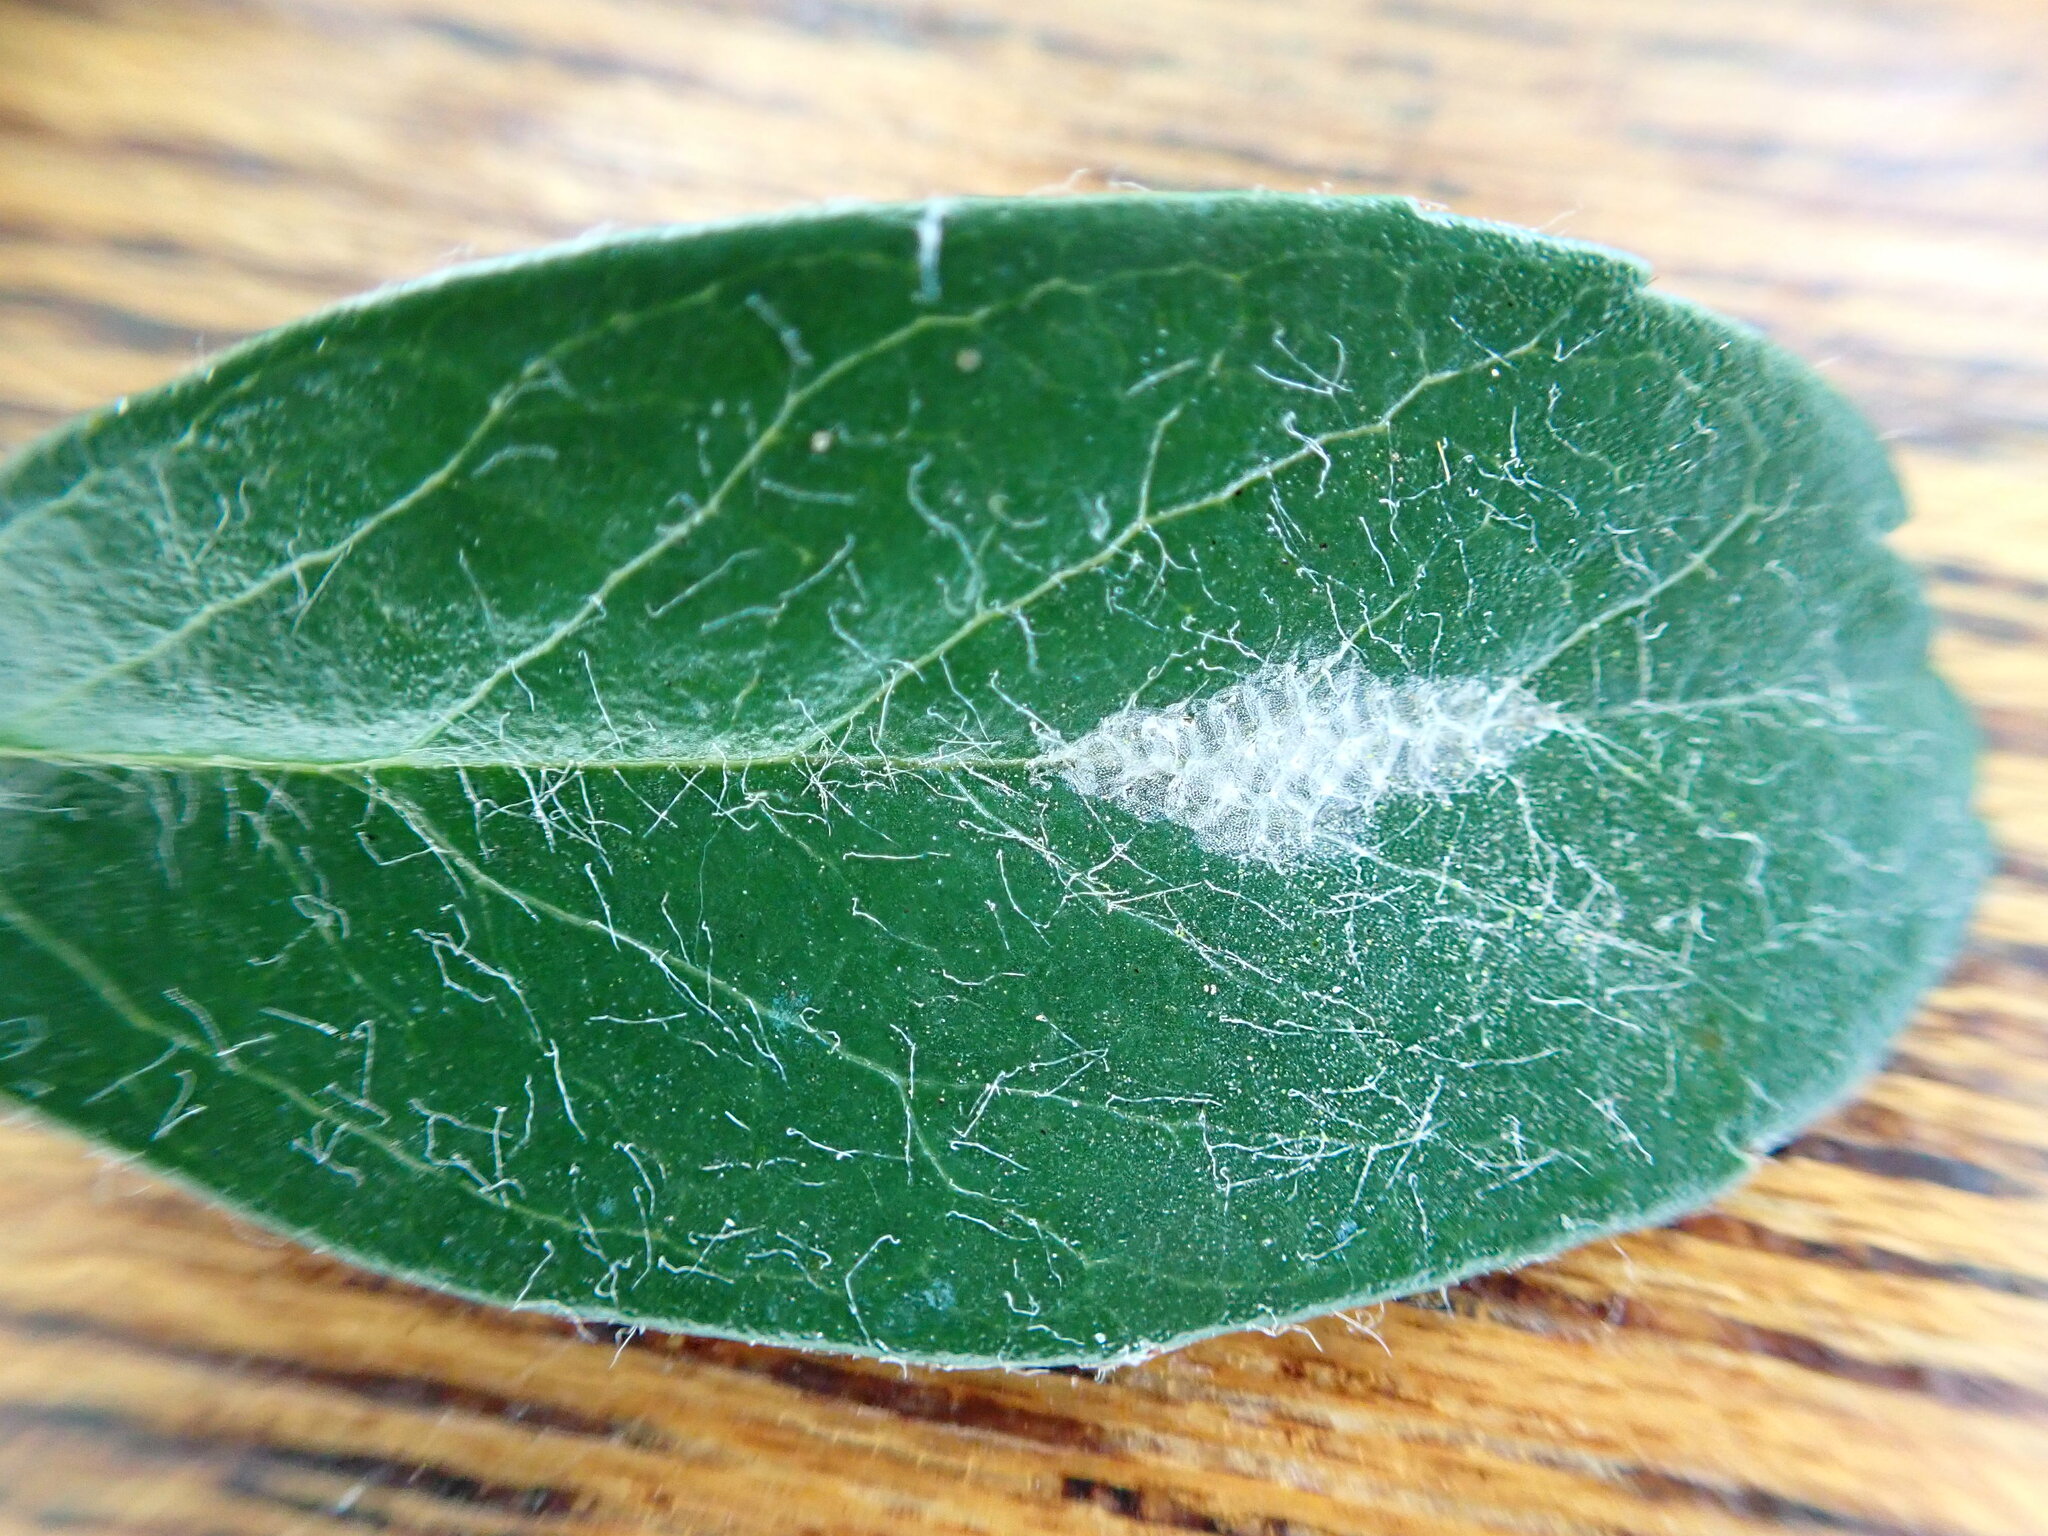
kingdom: Animalia
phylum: Arthropoda
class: Insecta
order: Lepidoptera
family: Gracillariidae
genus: Phyllonorycter
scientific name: Phyllonorycter leucographella
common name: Firethorn leaf-miner
